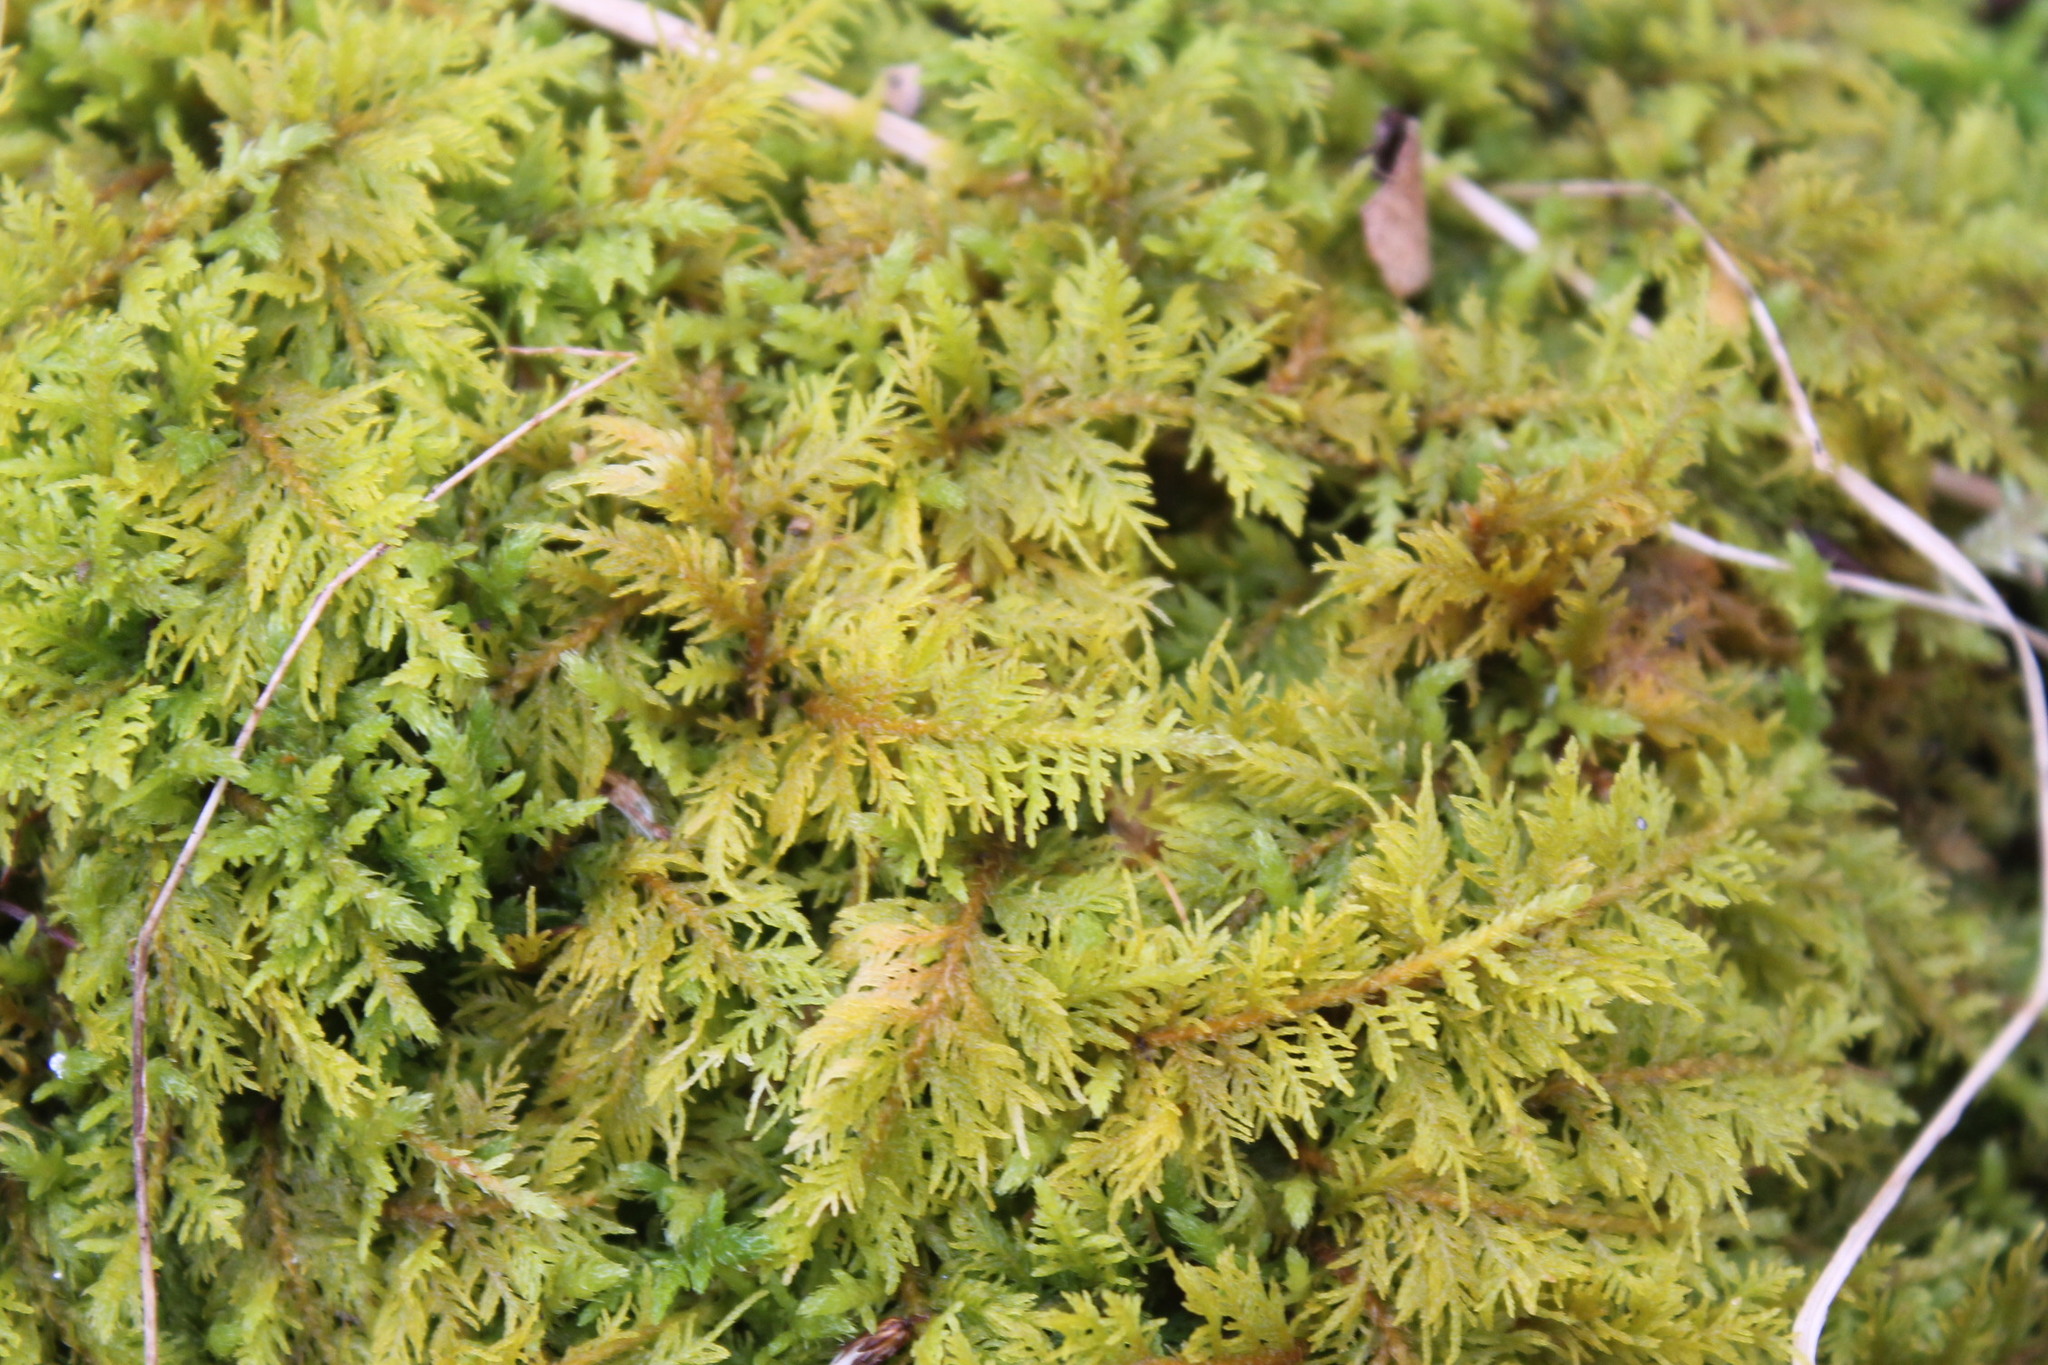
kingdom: Plantae
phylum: Bryophyta
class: Bryopsida
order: Hypnales
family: Thuidiaceae
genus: Thuidium
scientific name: Thuidium delicatulum
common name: Delicate fern moss
